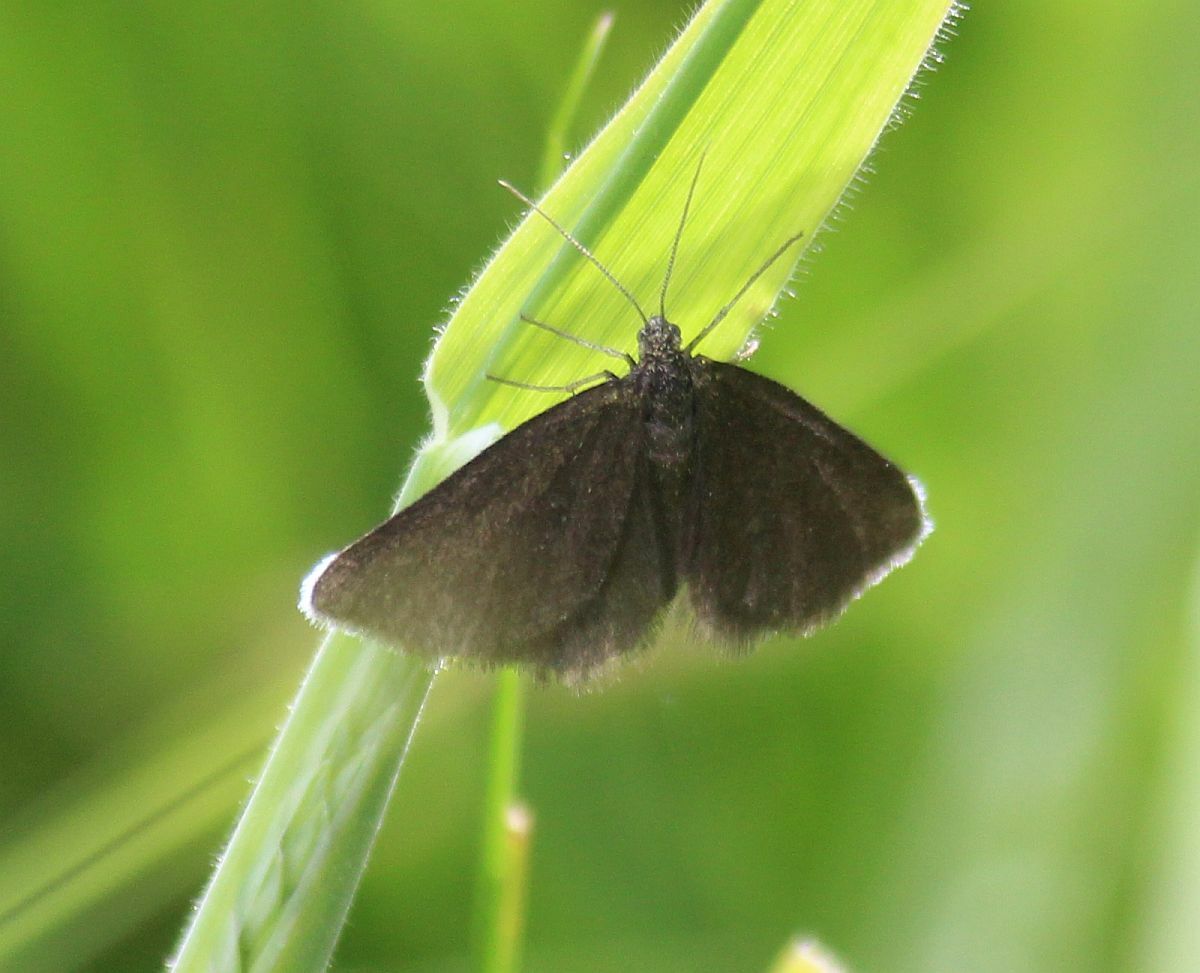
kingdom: Animalia
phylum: Arthropoda
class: Insecta
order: Lepidoptera
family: Geometridae
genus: Odezia
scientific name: Odezia atrata
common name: Chimney sweeper
